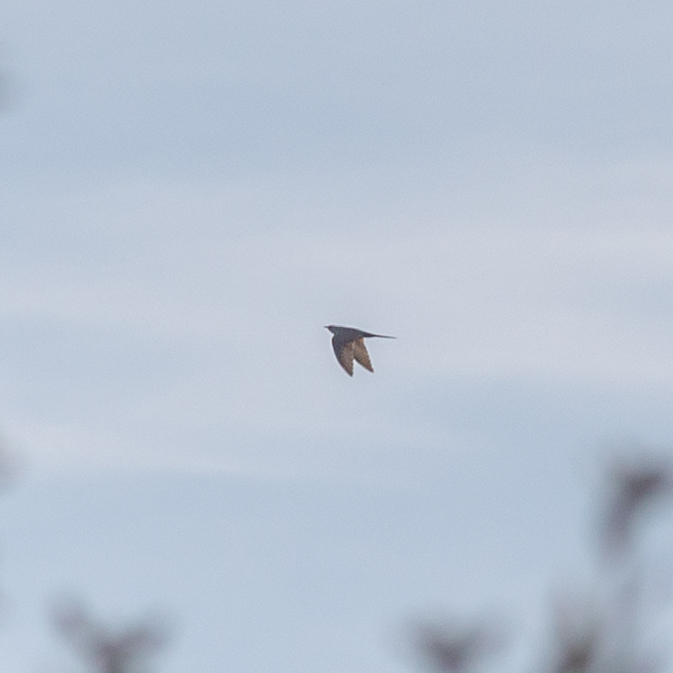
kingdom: Animalia
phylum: Chordata
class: Aves
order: Cuculiformes
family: Cuculidae
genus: Cuculus
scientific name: Cuculus canorus
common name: Common cuckoo
